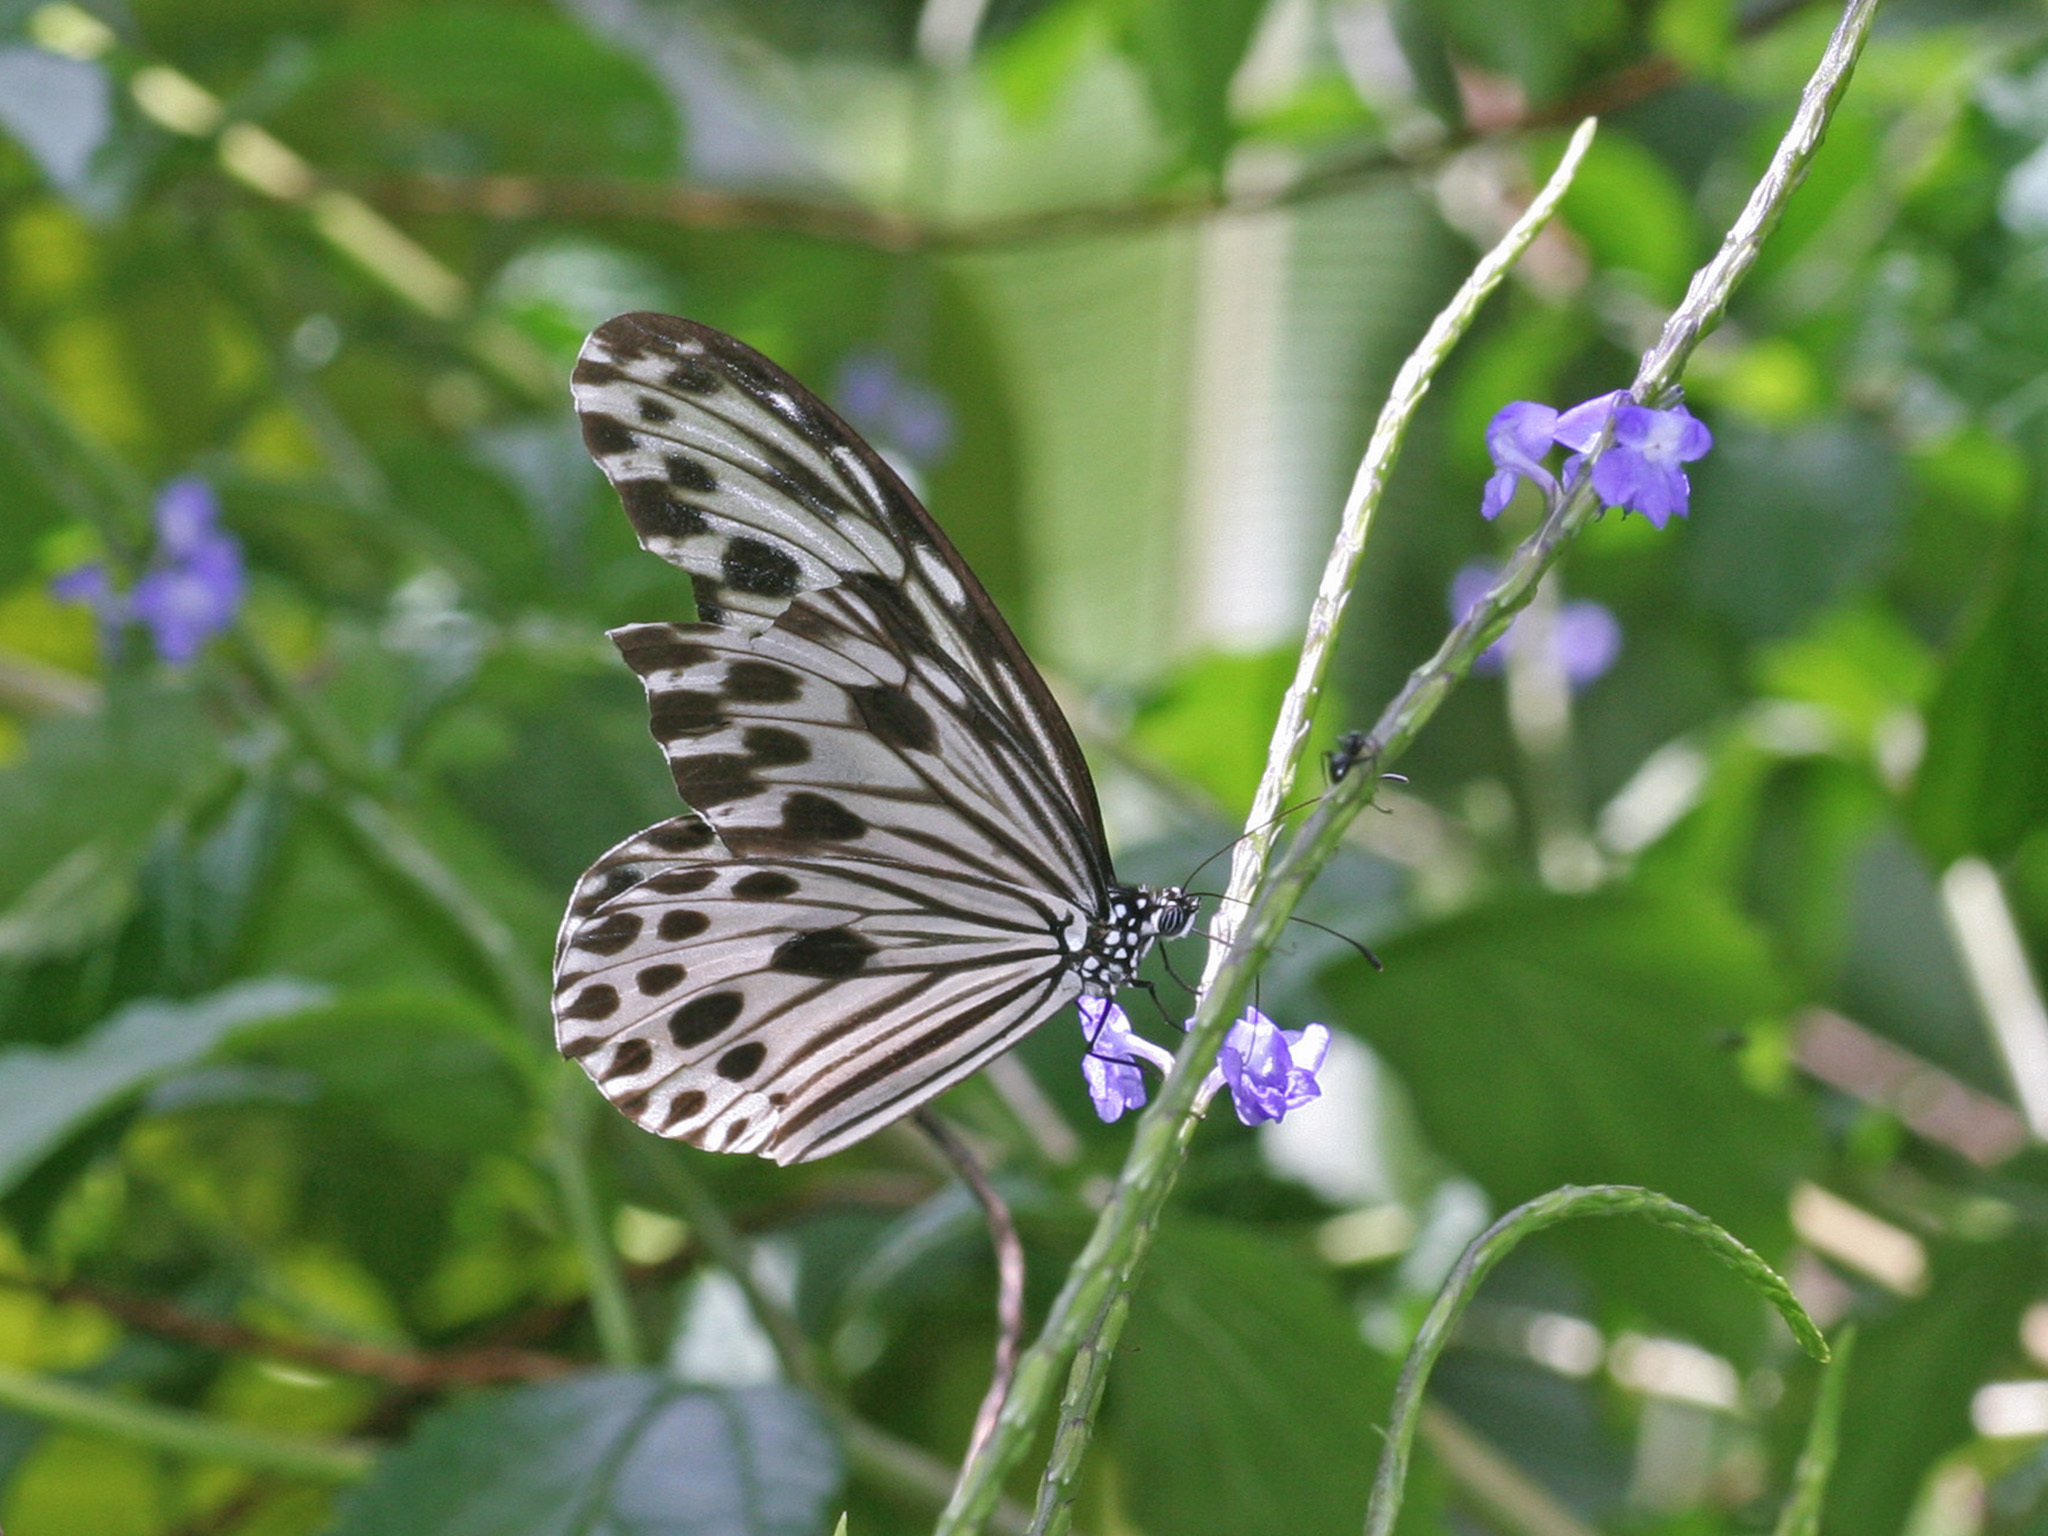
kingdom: Animalia
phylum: Arthropoda
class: Insecta
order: Lepidoptera
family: Nymphalidae
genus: Ideopsis
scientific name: Ideopsis gaura
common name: Smaller wood nymph
